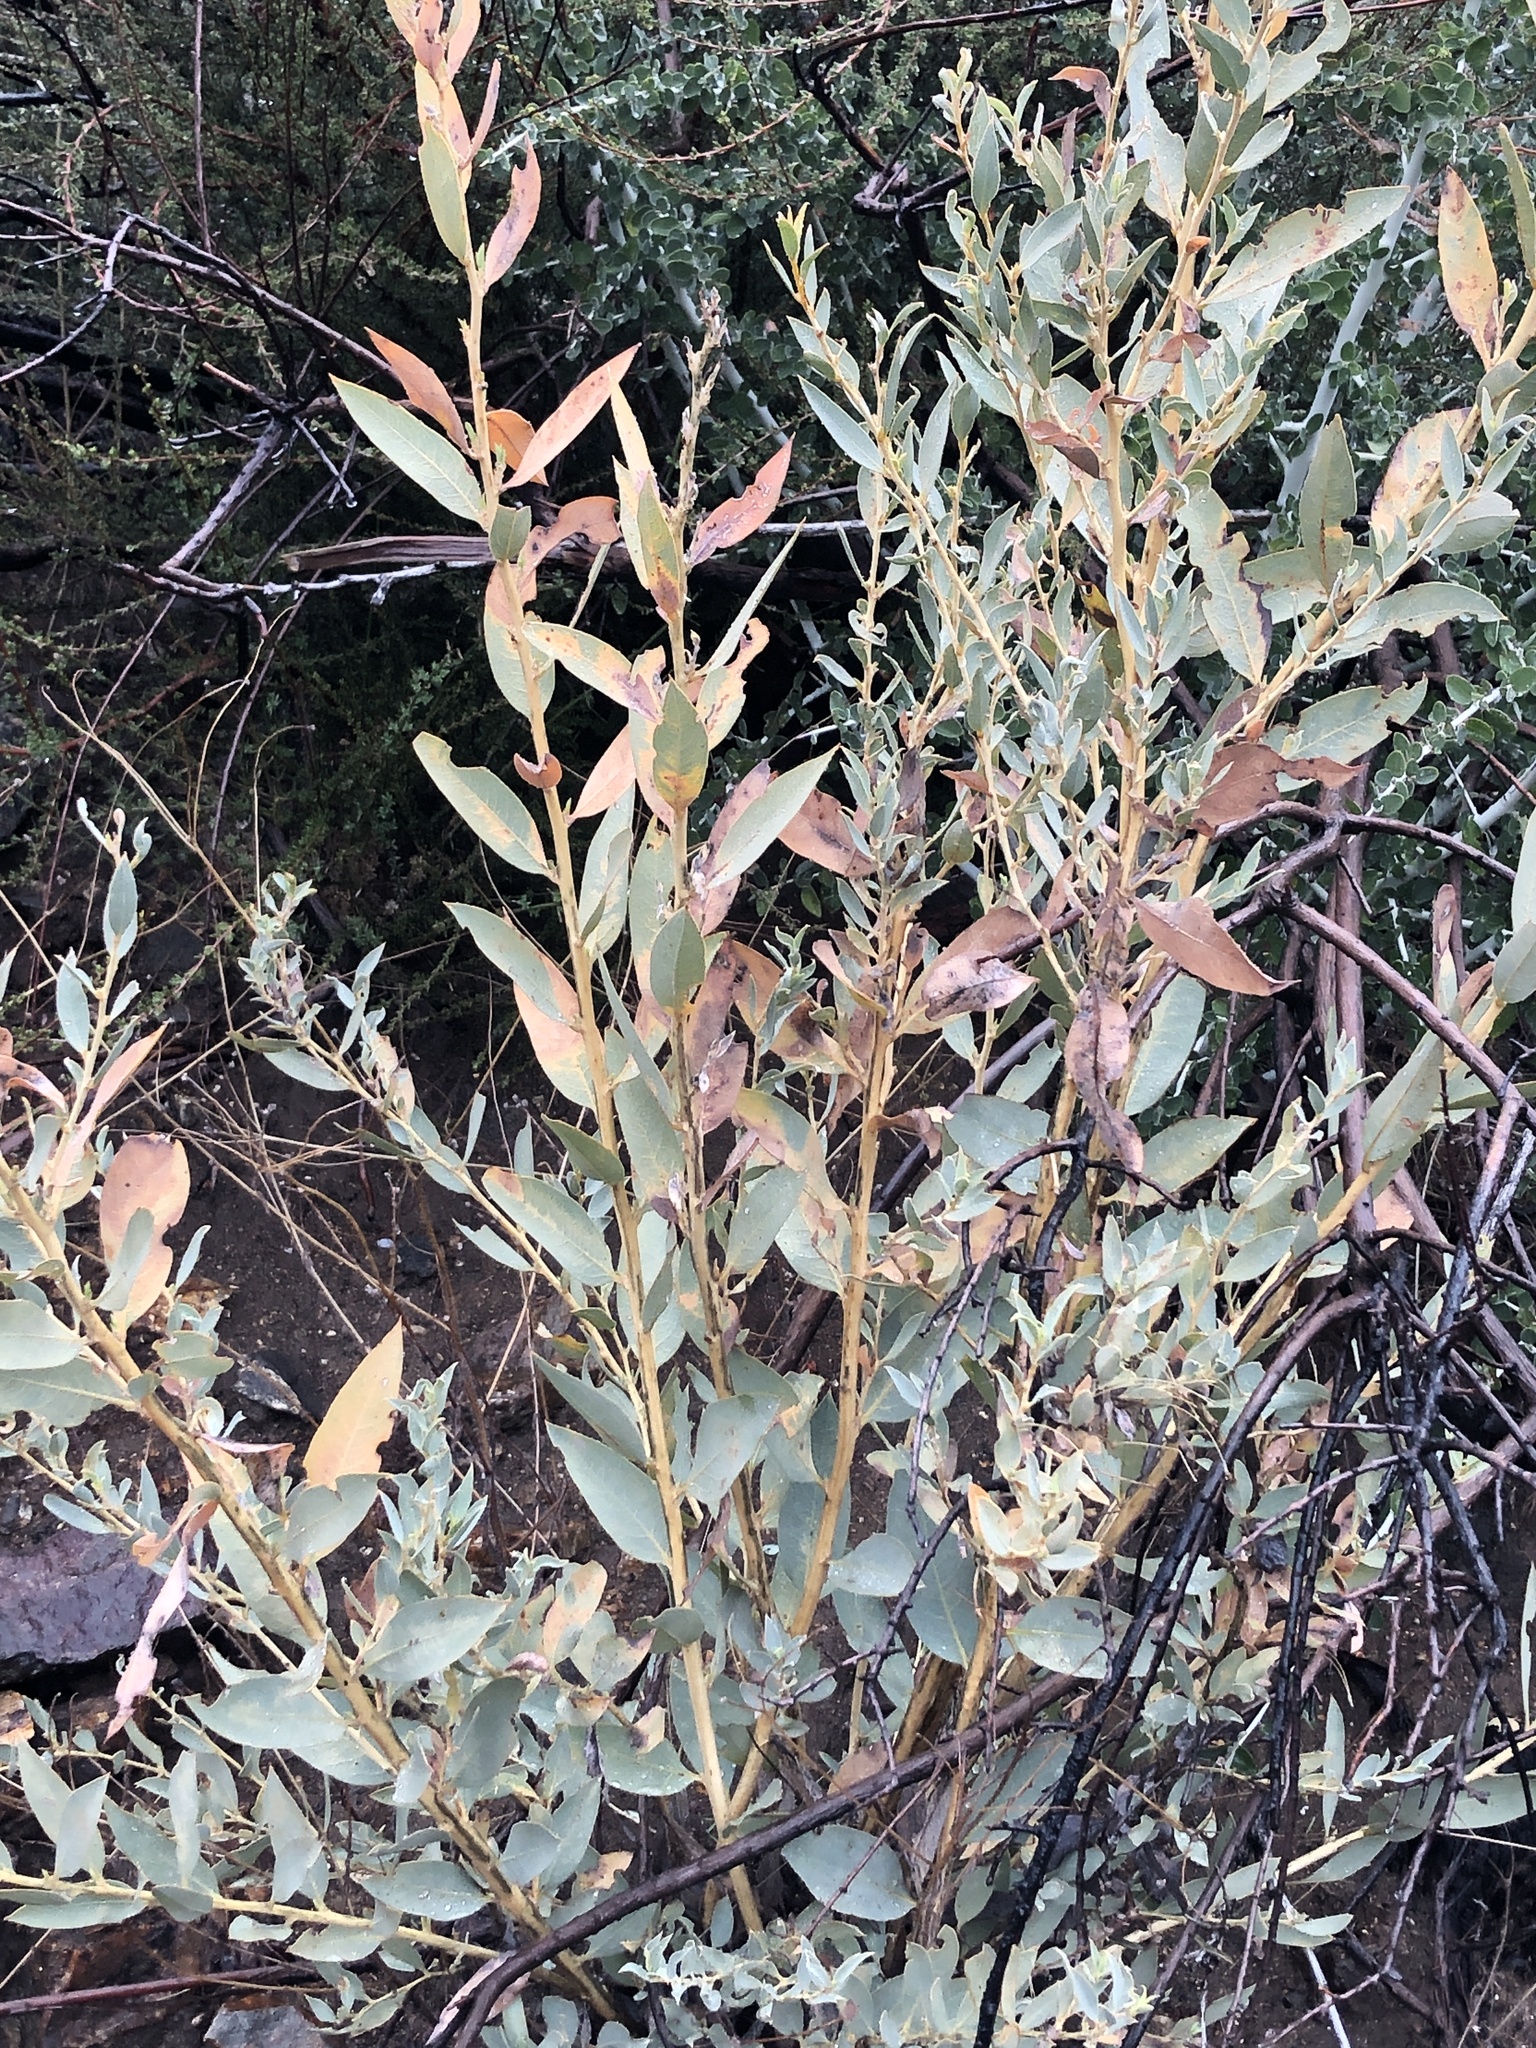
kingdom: Plantae
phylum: Tracheophyta
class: Magnoliopsida
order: Ranunculales
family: Papaveraceae
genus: Dendromecon
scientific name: Dendromecon rigida
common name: Tree poppy
